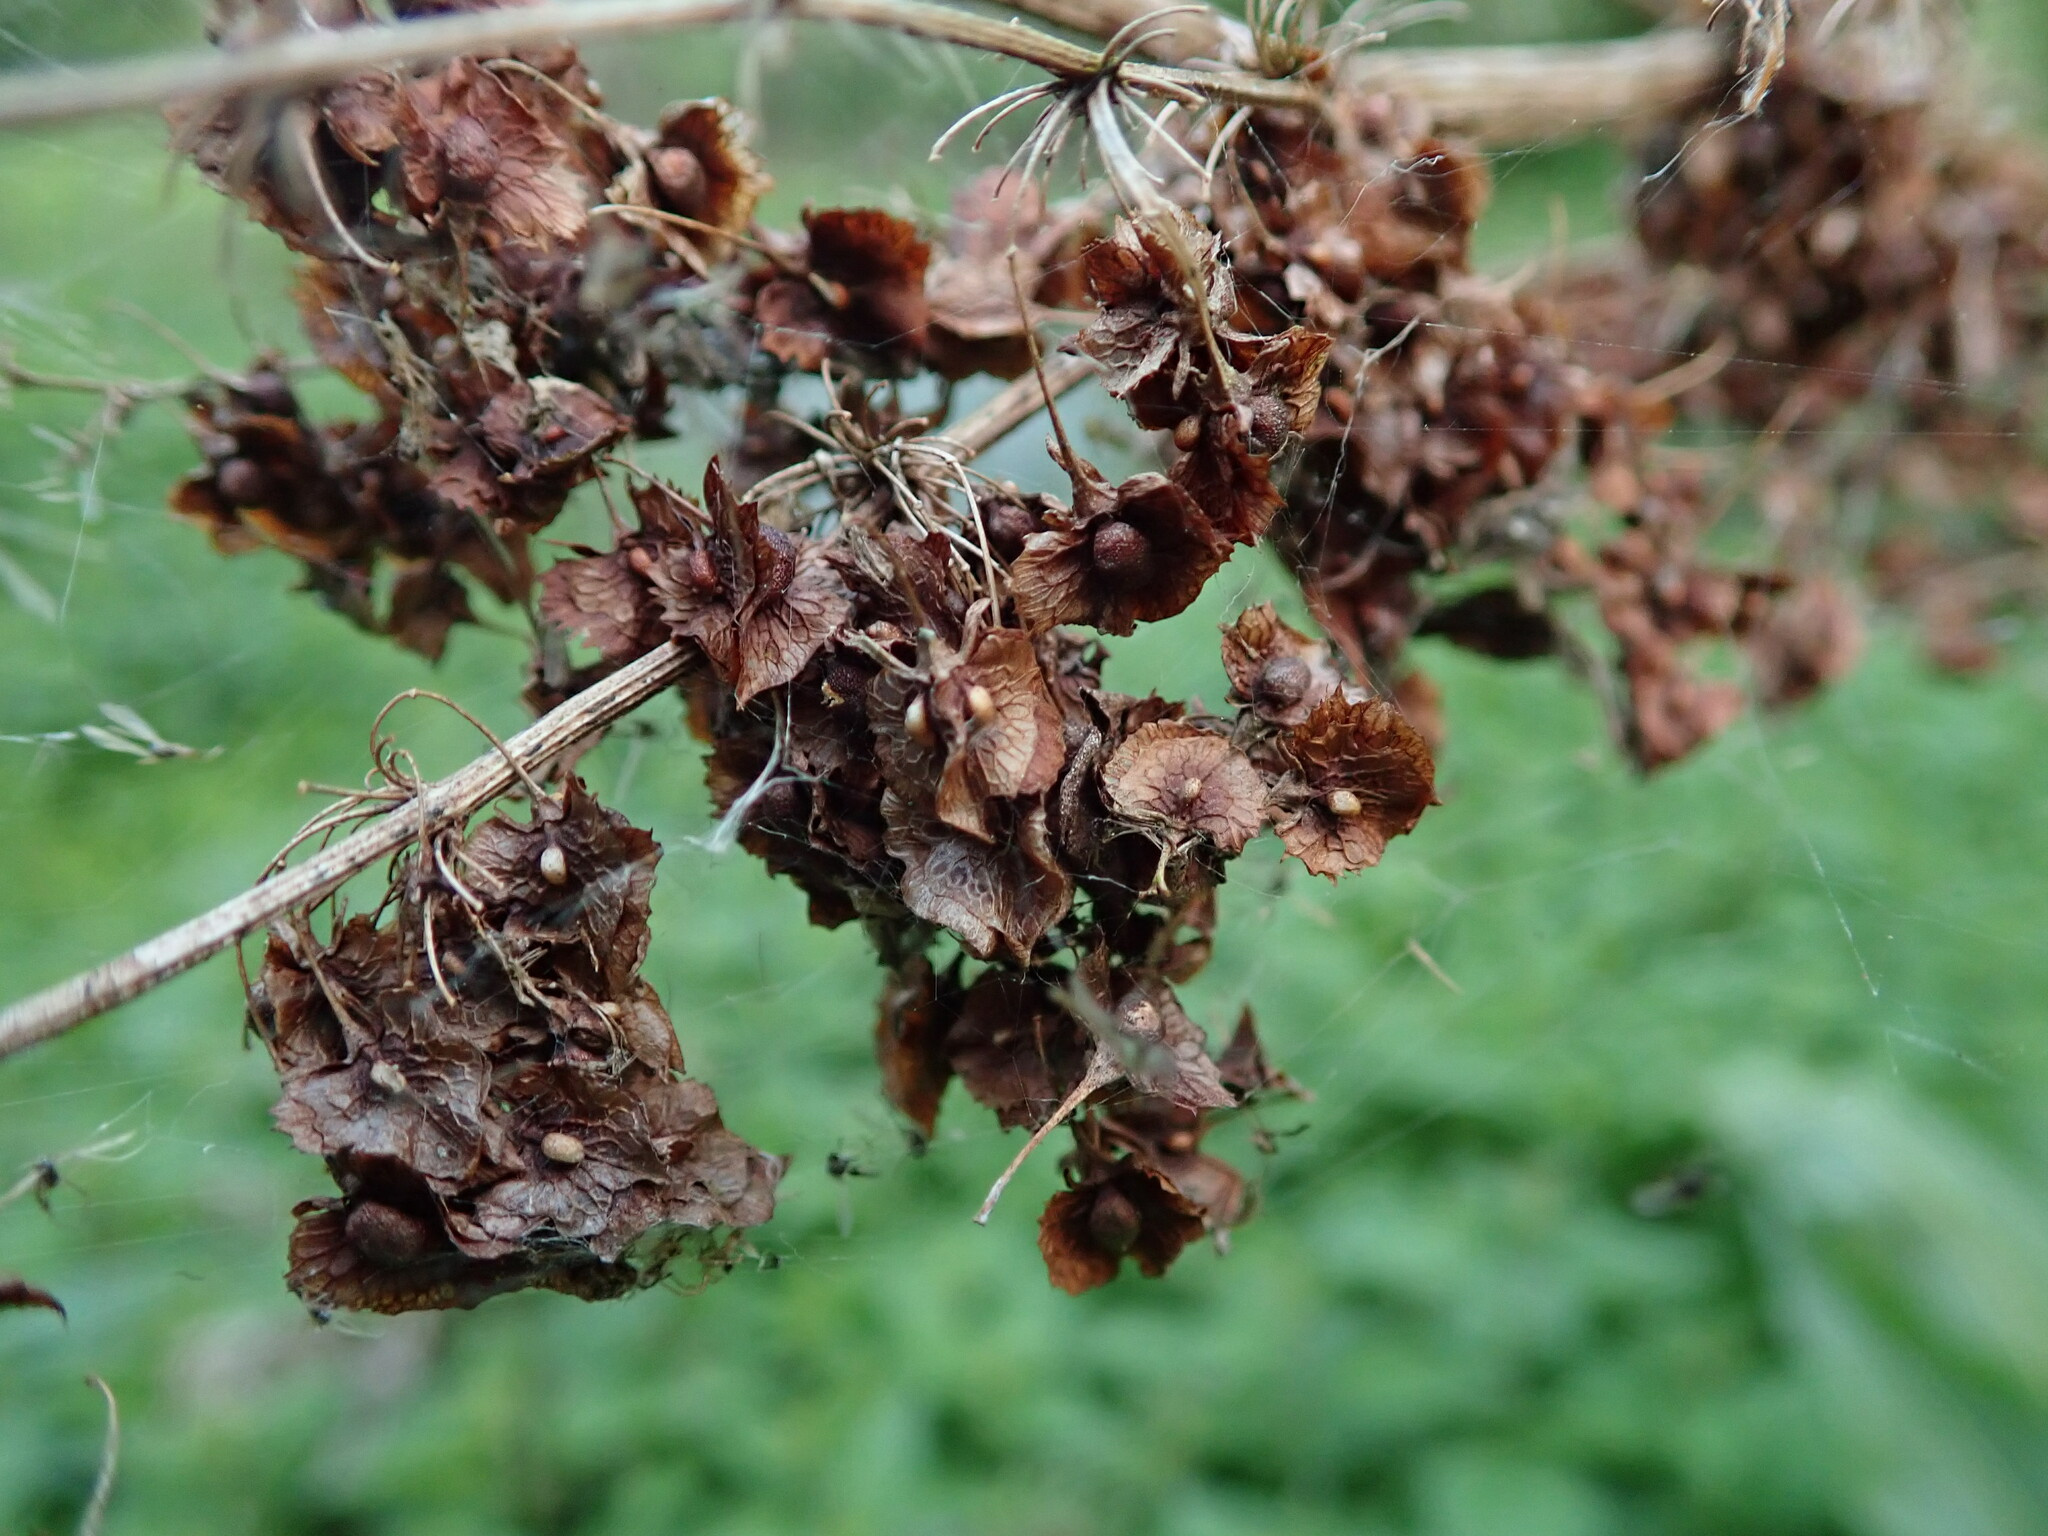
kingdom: Plantae
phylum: Tracheophyta
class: Magnoliopsida
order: Caryophyllales
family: Polygonaceae
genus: Rumex
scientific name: Rumex cristatus
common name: Greek dock
